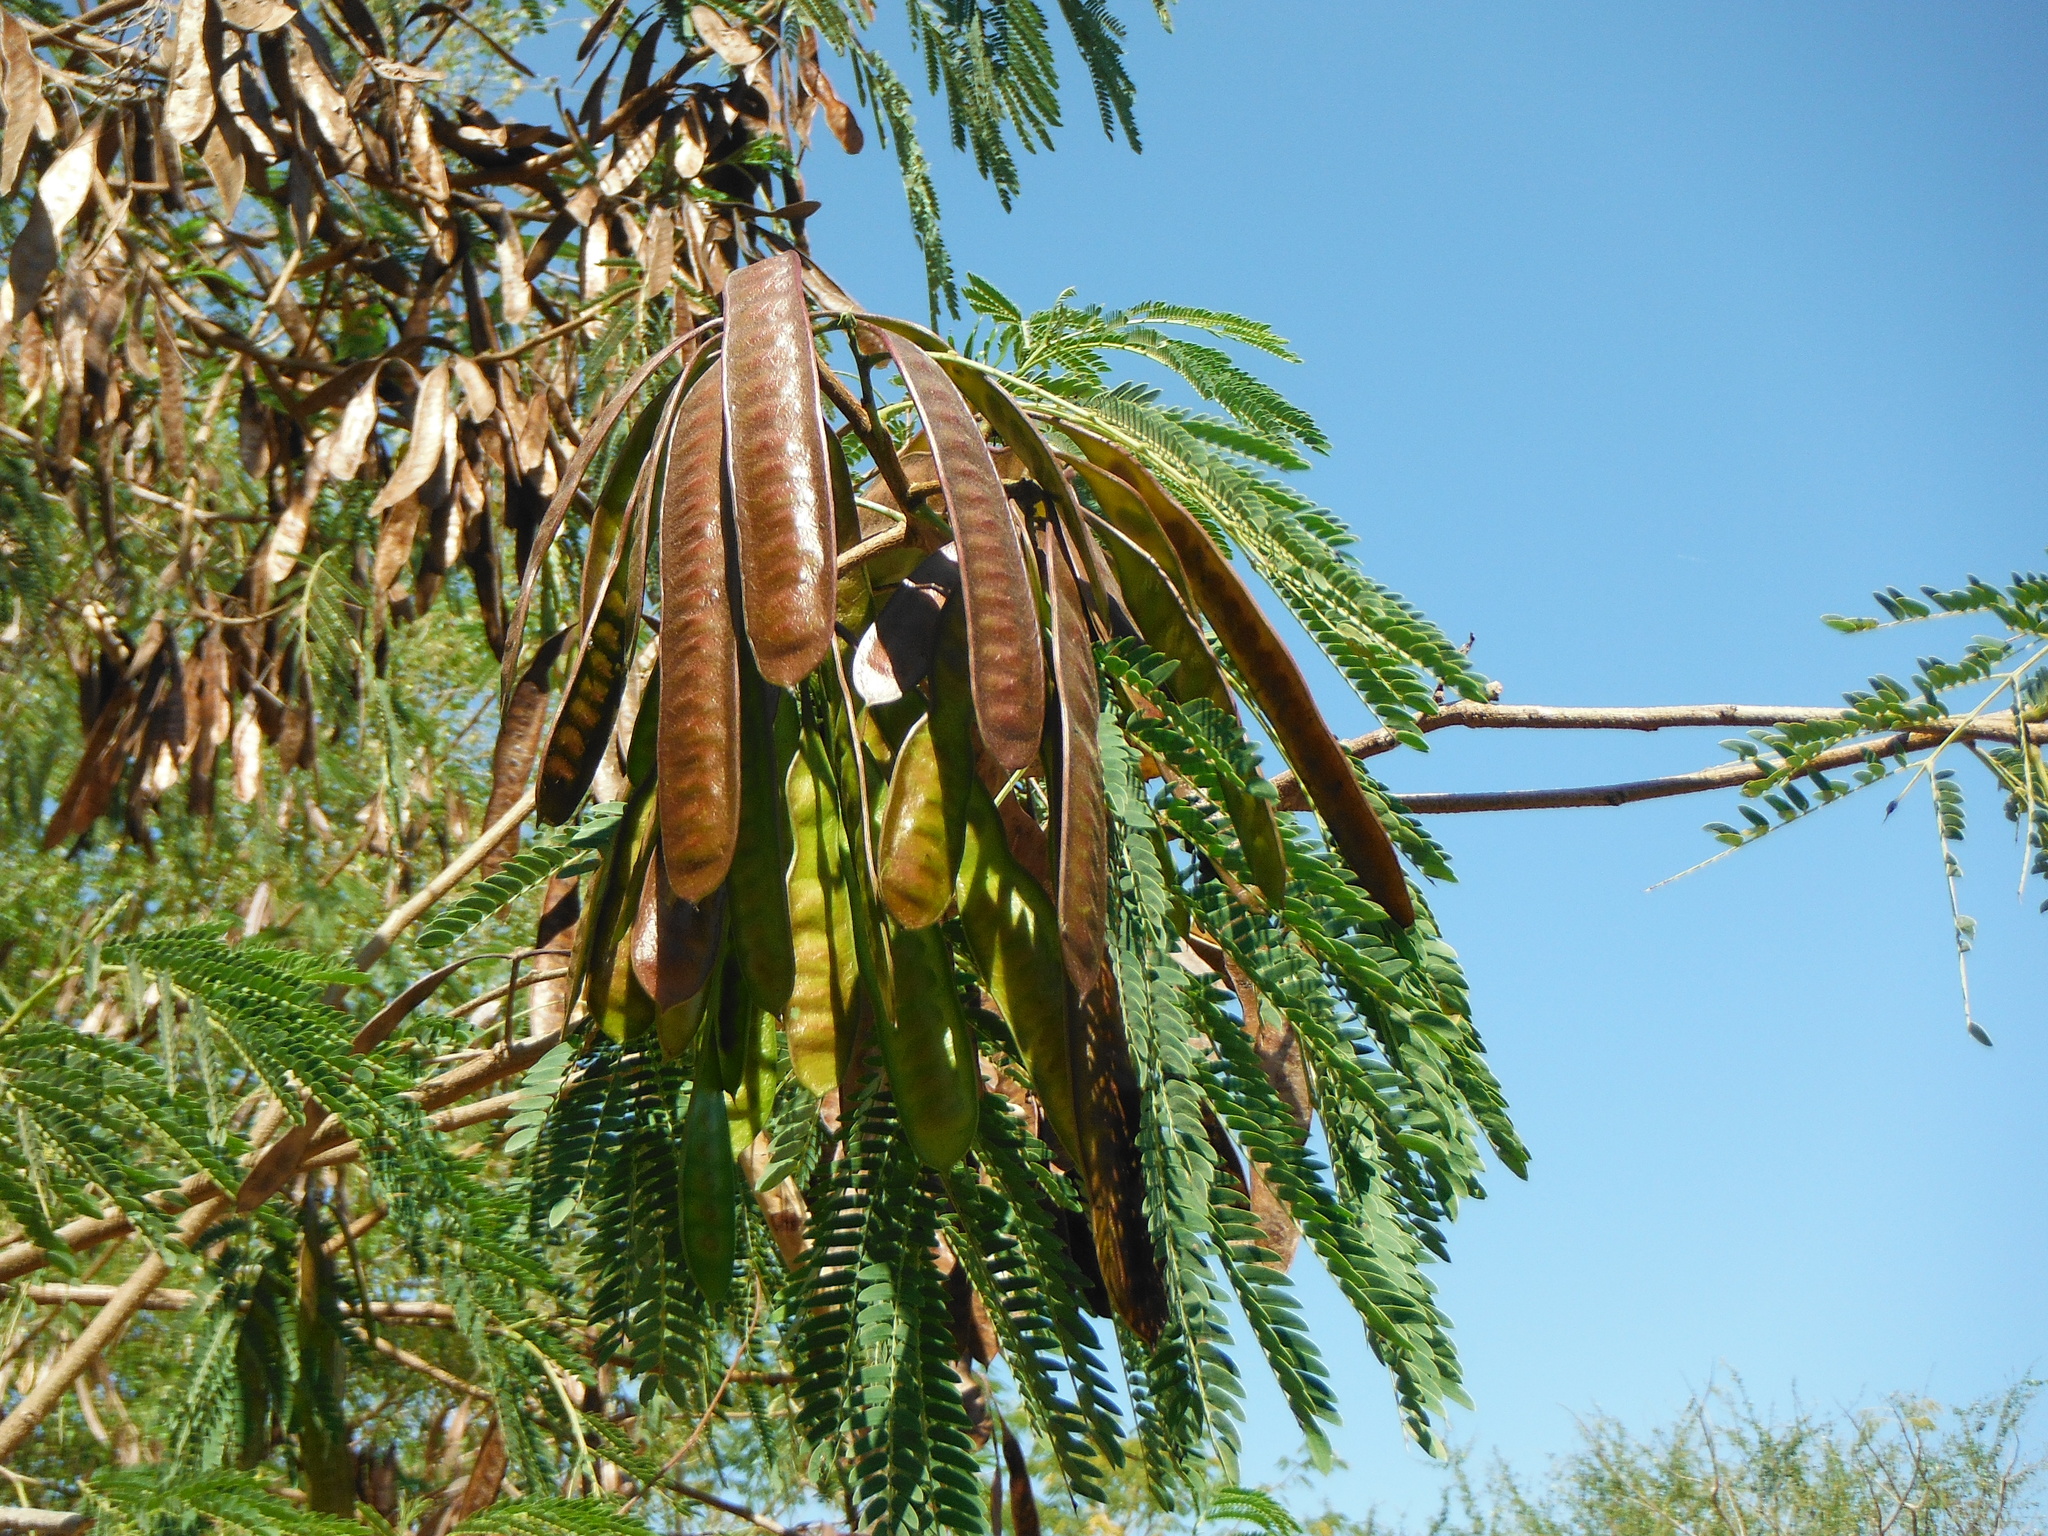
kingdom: Plantae
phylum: Tracheophyta
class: Magnoliopsida
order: Fabales
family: Fabaceae
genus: Leucaena
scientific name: Leucaena leucocephala
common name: White leadtree
